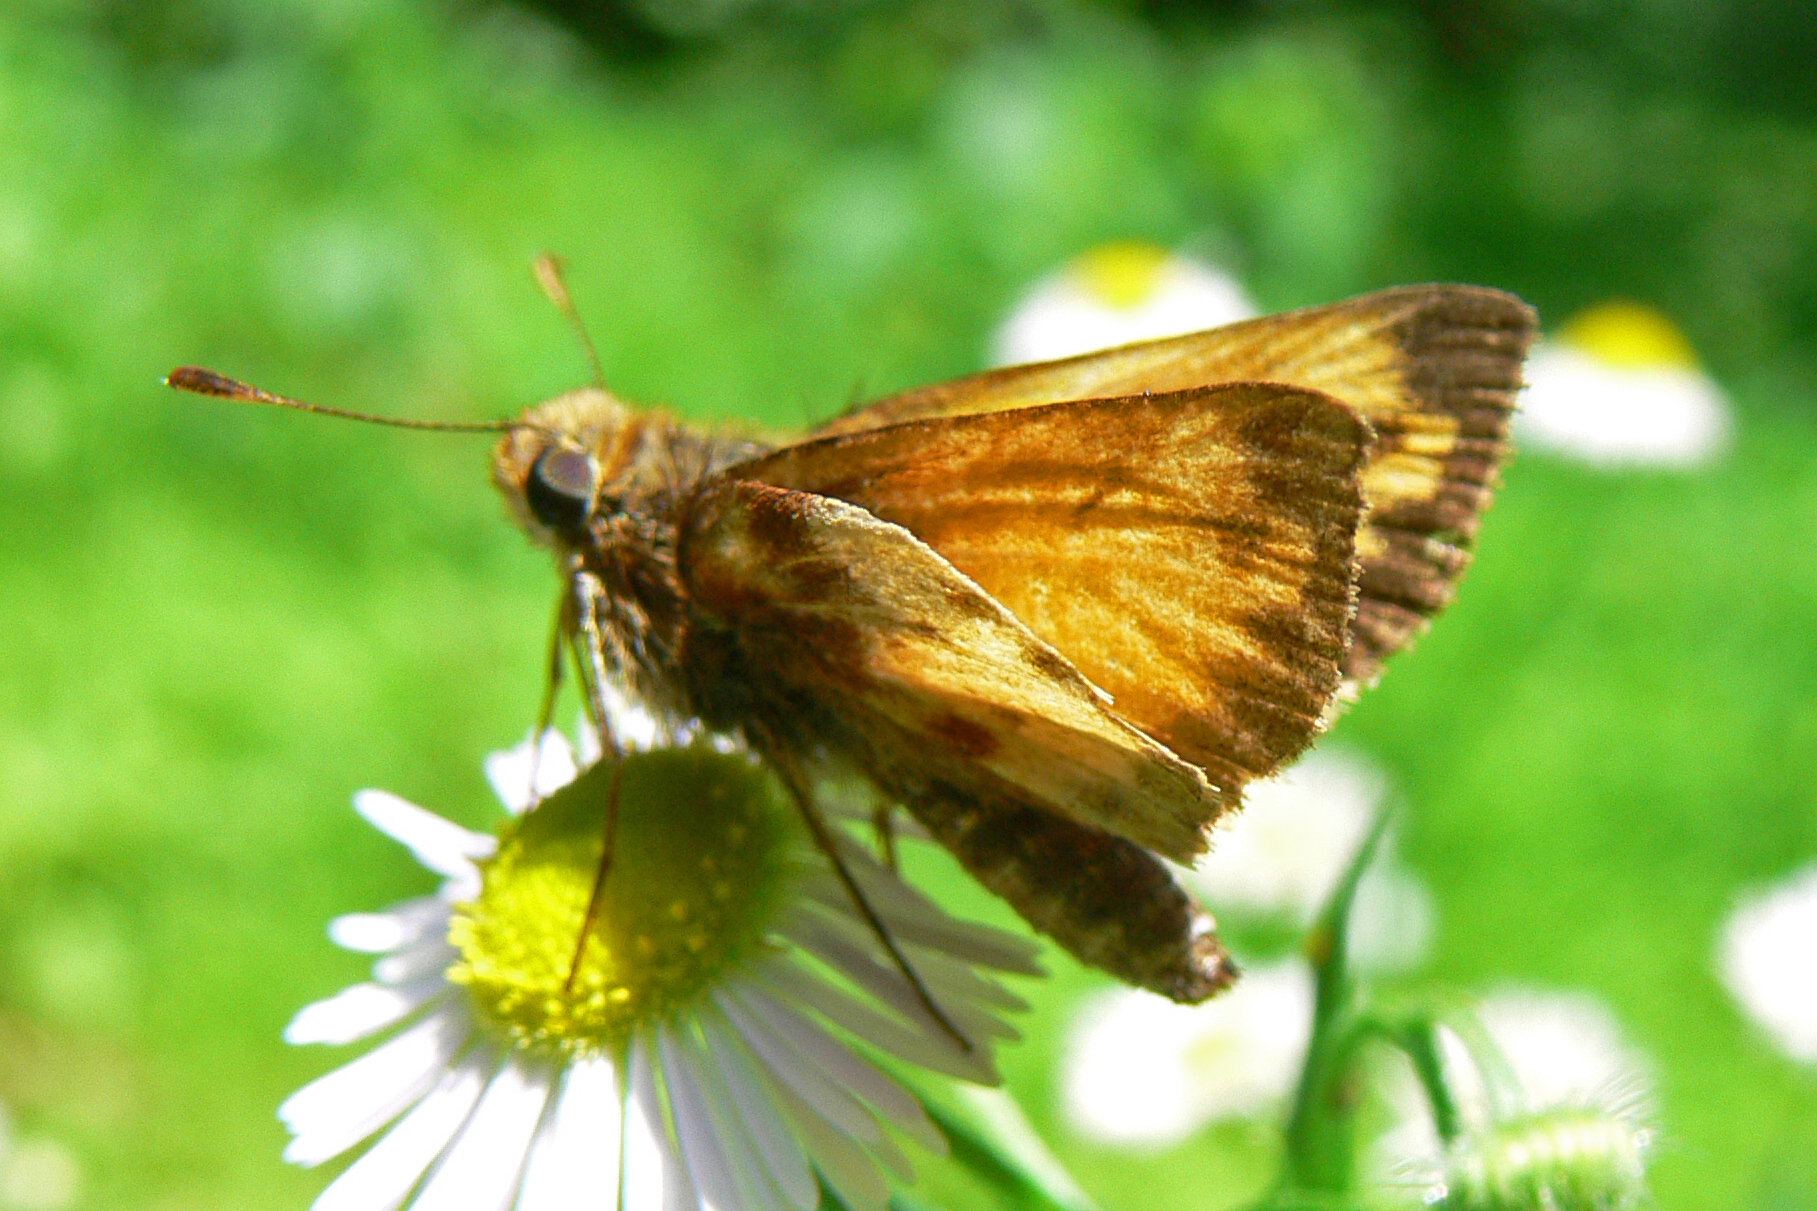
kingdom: Animalia
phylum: Arthropoda
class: Insecta
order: Lepidoptera
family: Hesperiidae
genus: Lon
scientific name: Lon zabulon
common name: Zabulon skipper
